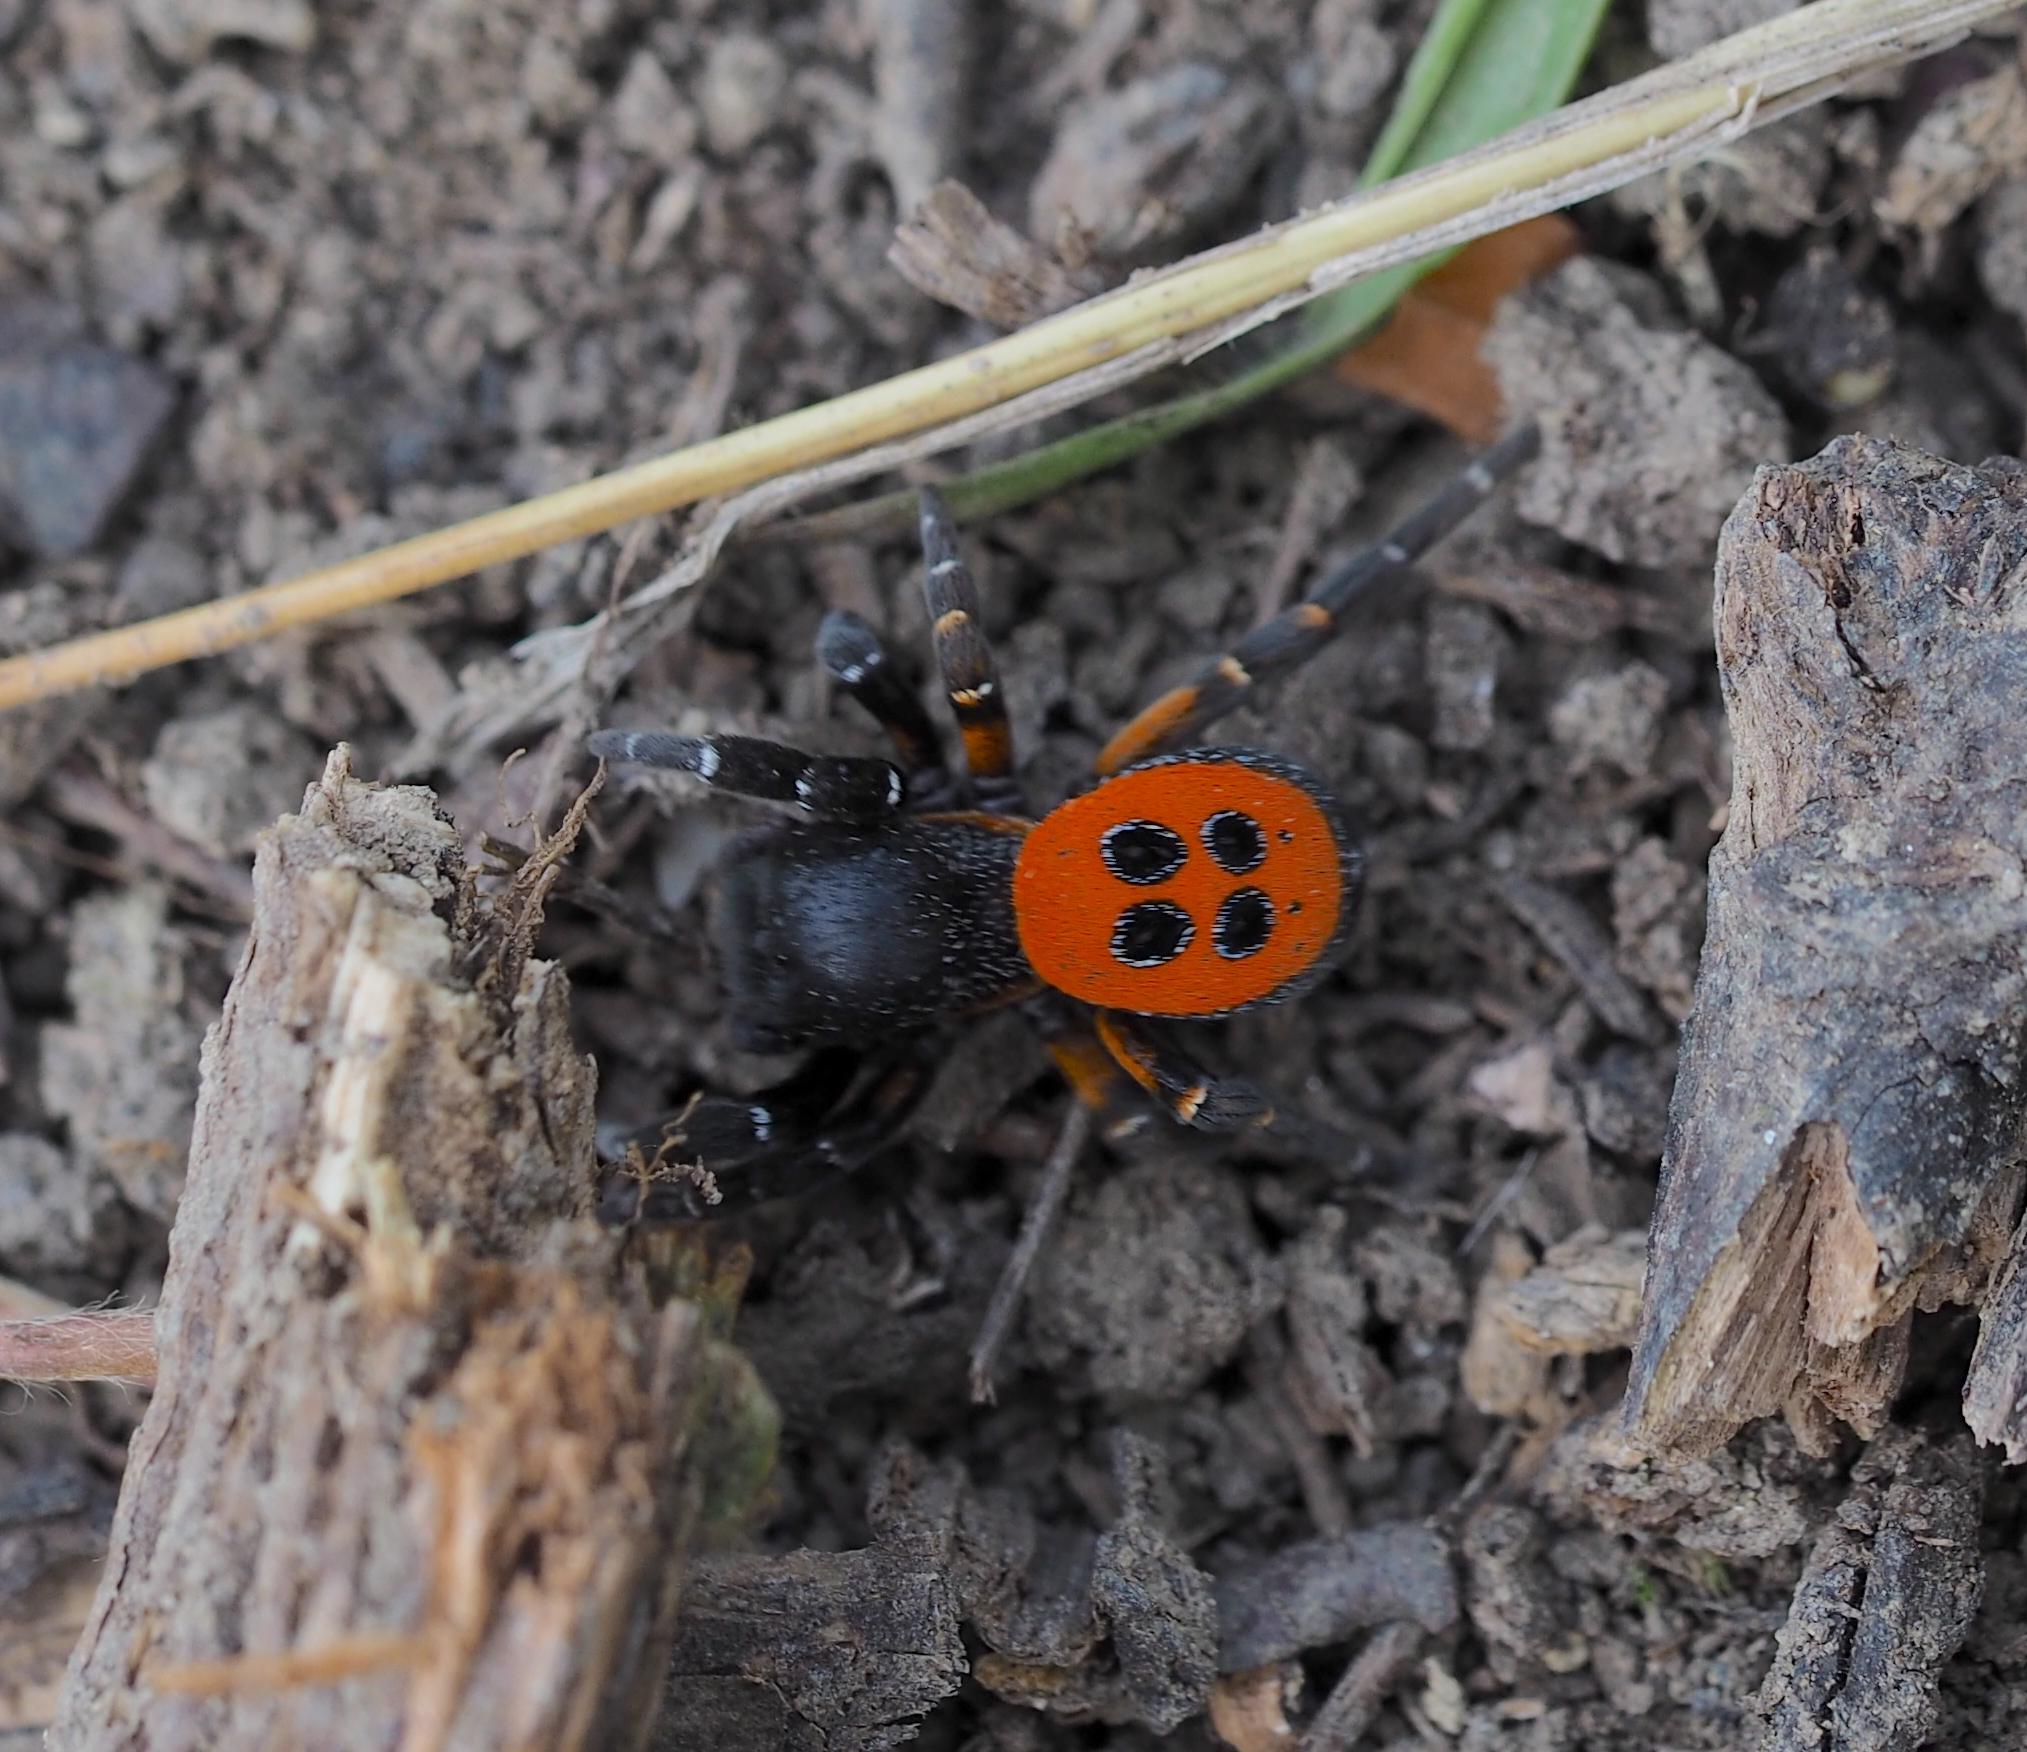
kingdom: Animalia
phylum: Arthropoda
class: Arachnida
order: Araneae
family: Eresidae
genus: Eresus
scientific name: Eresus kollari
